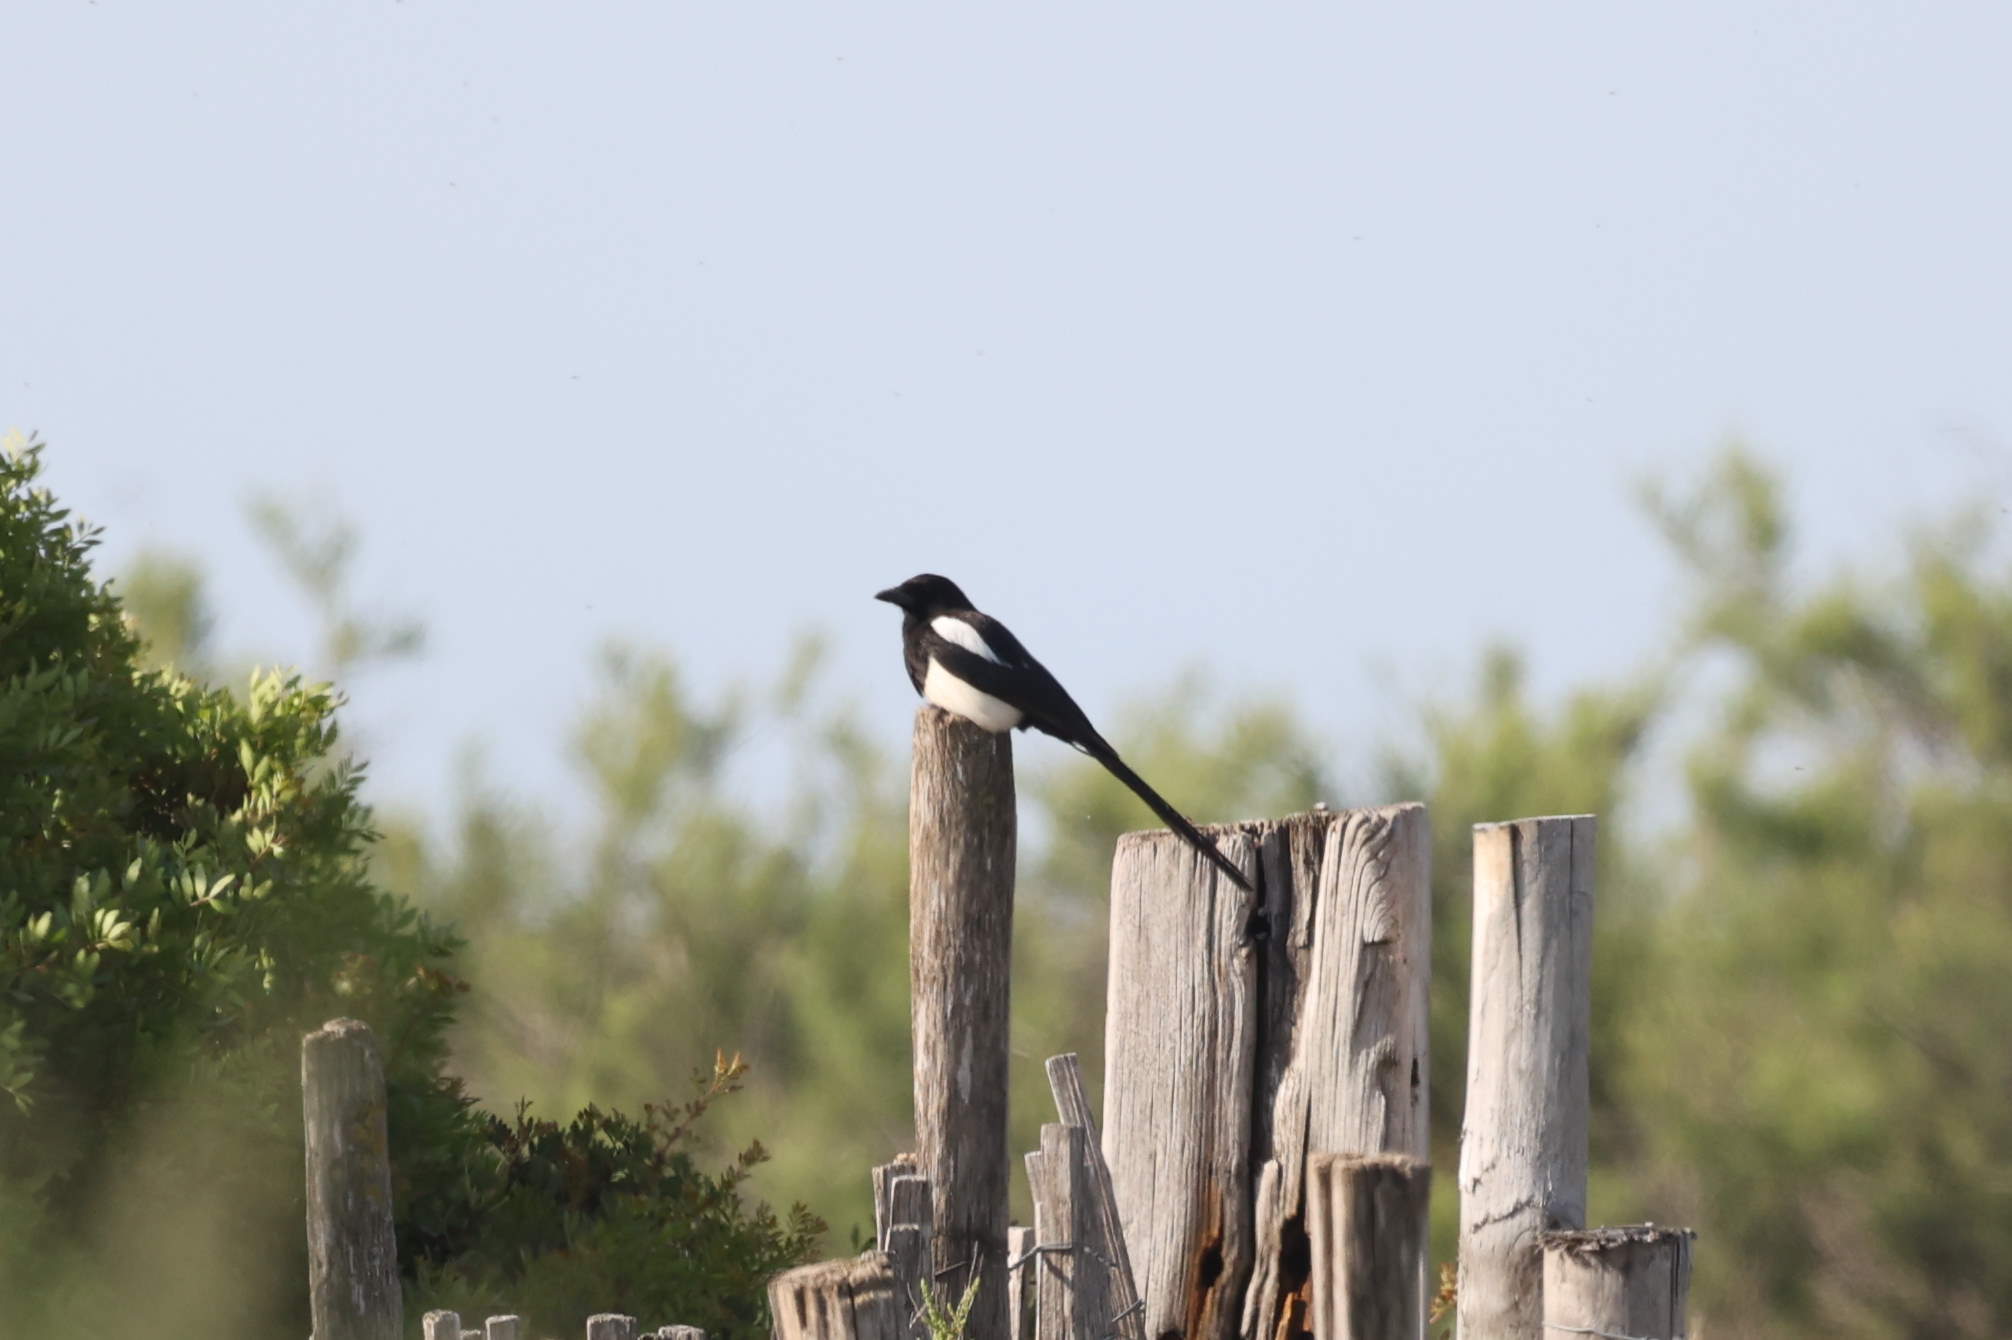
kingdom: Animalia
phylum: Chordata
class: Aves
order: Passeriformes
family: Corvidae
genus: Pica
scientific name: Pica pica
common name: Eurasian magpie
